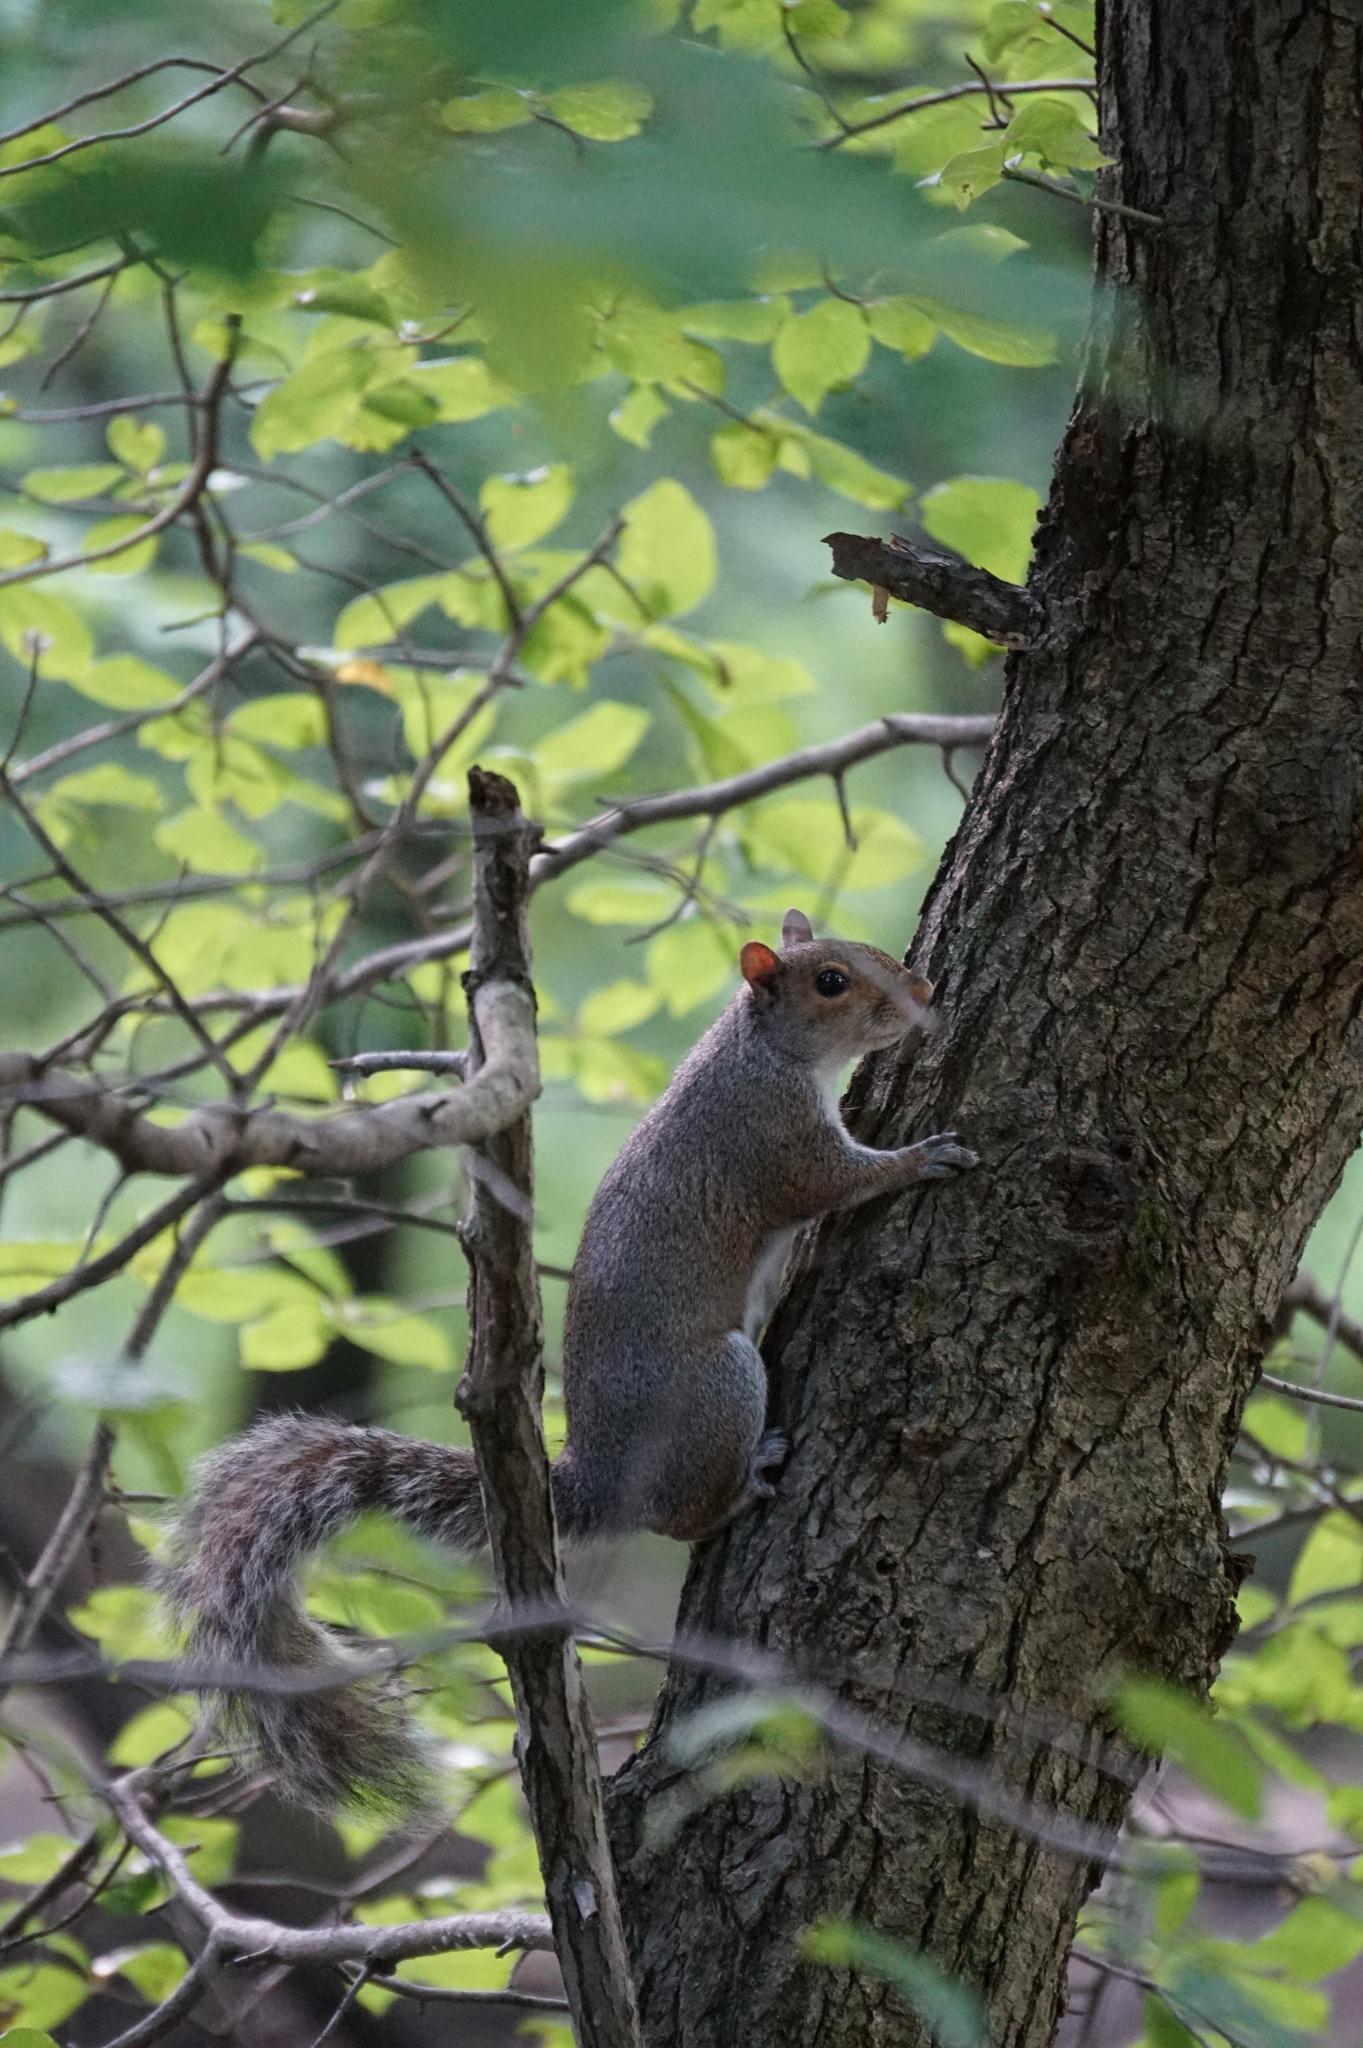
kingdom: Animalia
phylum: Chordata
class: Mammalia
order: Rodentia
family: Sciuridae
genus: Sciurus
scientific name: Sciurus carolinensis
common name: Eastern gray squirrel
